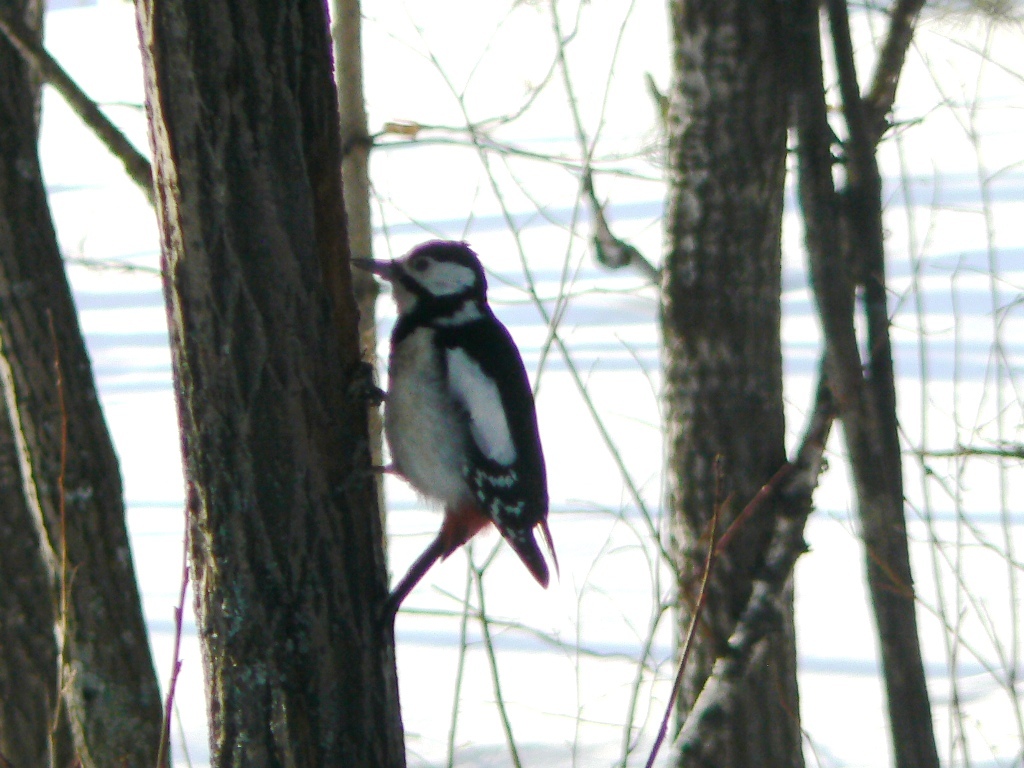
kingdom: Animalia
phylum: Chordata
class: Aves
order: Piciformes
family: Picidae
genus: Dendrocopos
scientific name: Dendrocopos major
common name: Great spotted woodpecker
